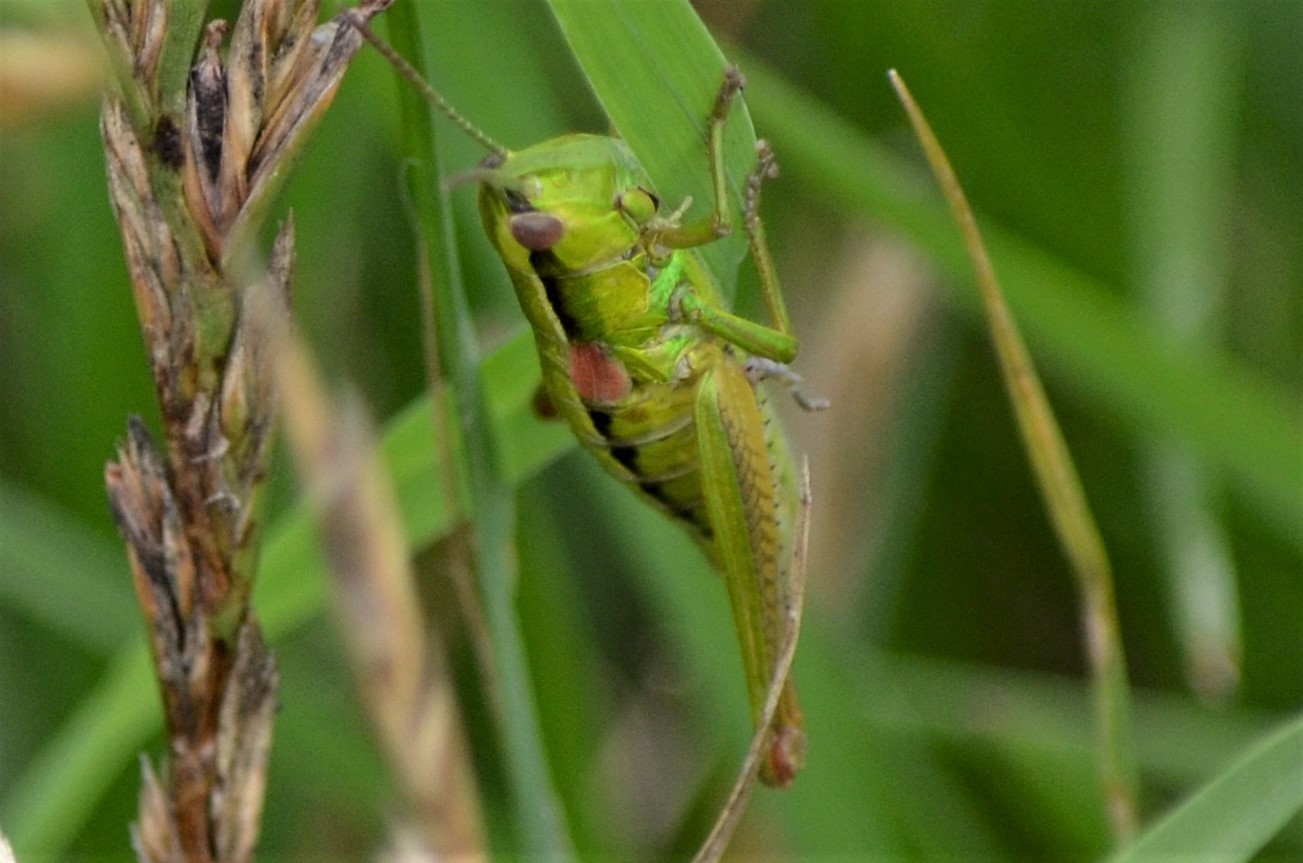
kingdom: Animalia
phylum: Arthropoda
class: Insecta
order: Orthoptera
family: Acrididae
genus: Euthystira
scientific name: Euthystira brachyptera
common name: Small gold grasshopper
